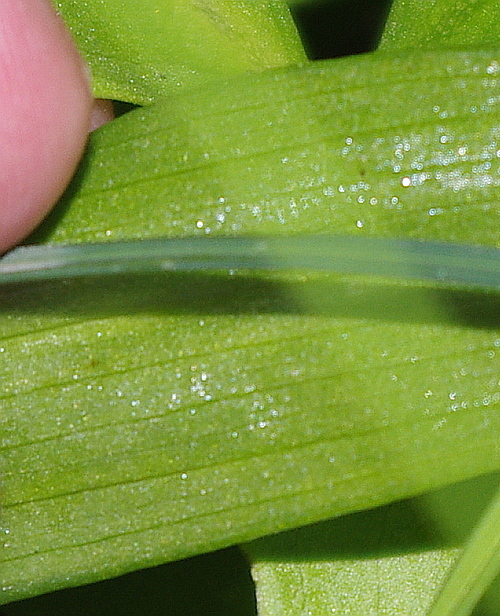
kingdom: Plantae
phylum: Tracheophyta
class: Liliopsida
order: Asparagales
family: Orchidaceae
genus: Dactylorhiza
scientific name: Dactylorhiza incarnata
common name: Early marsh-orchid
